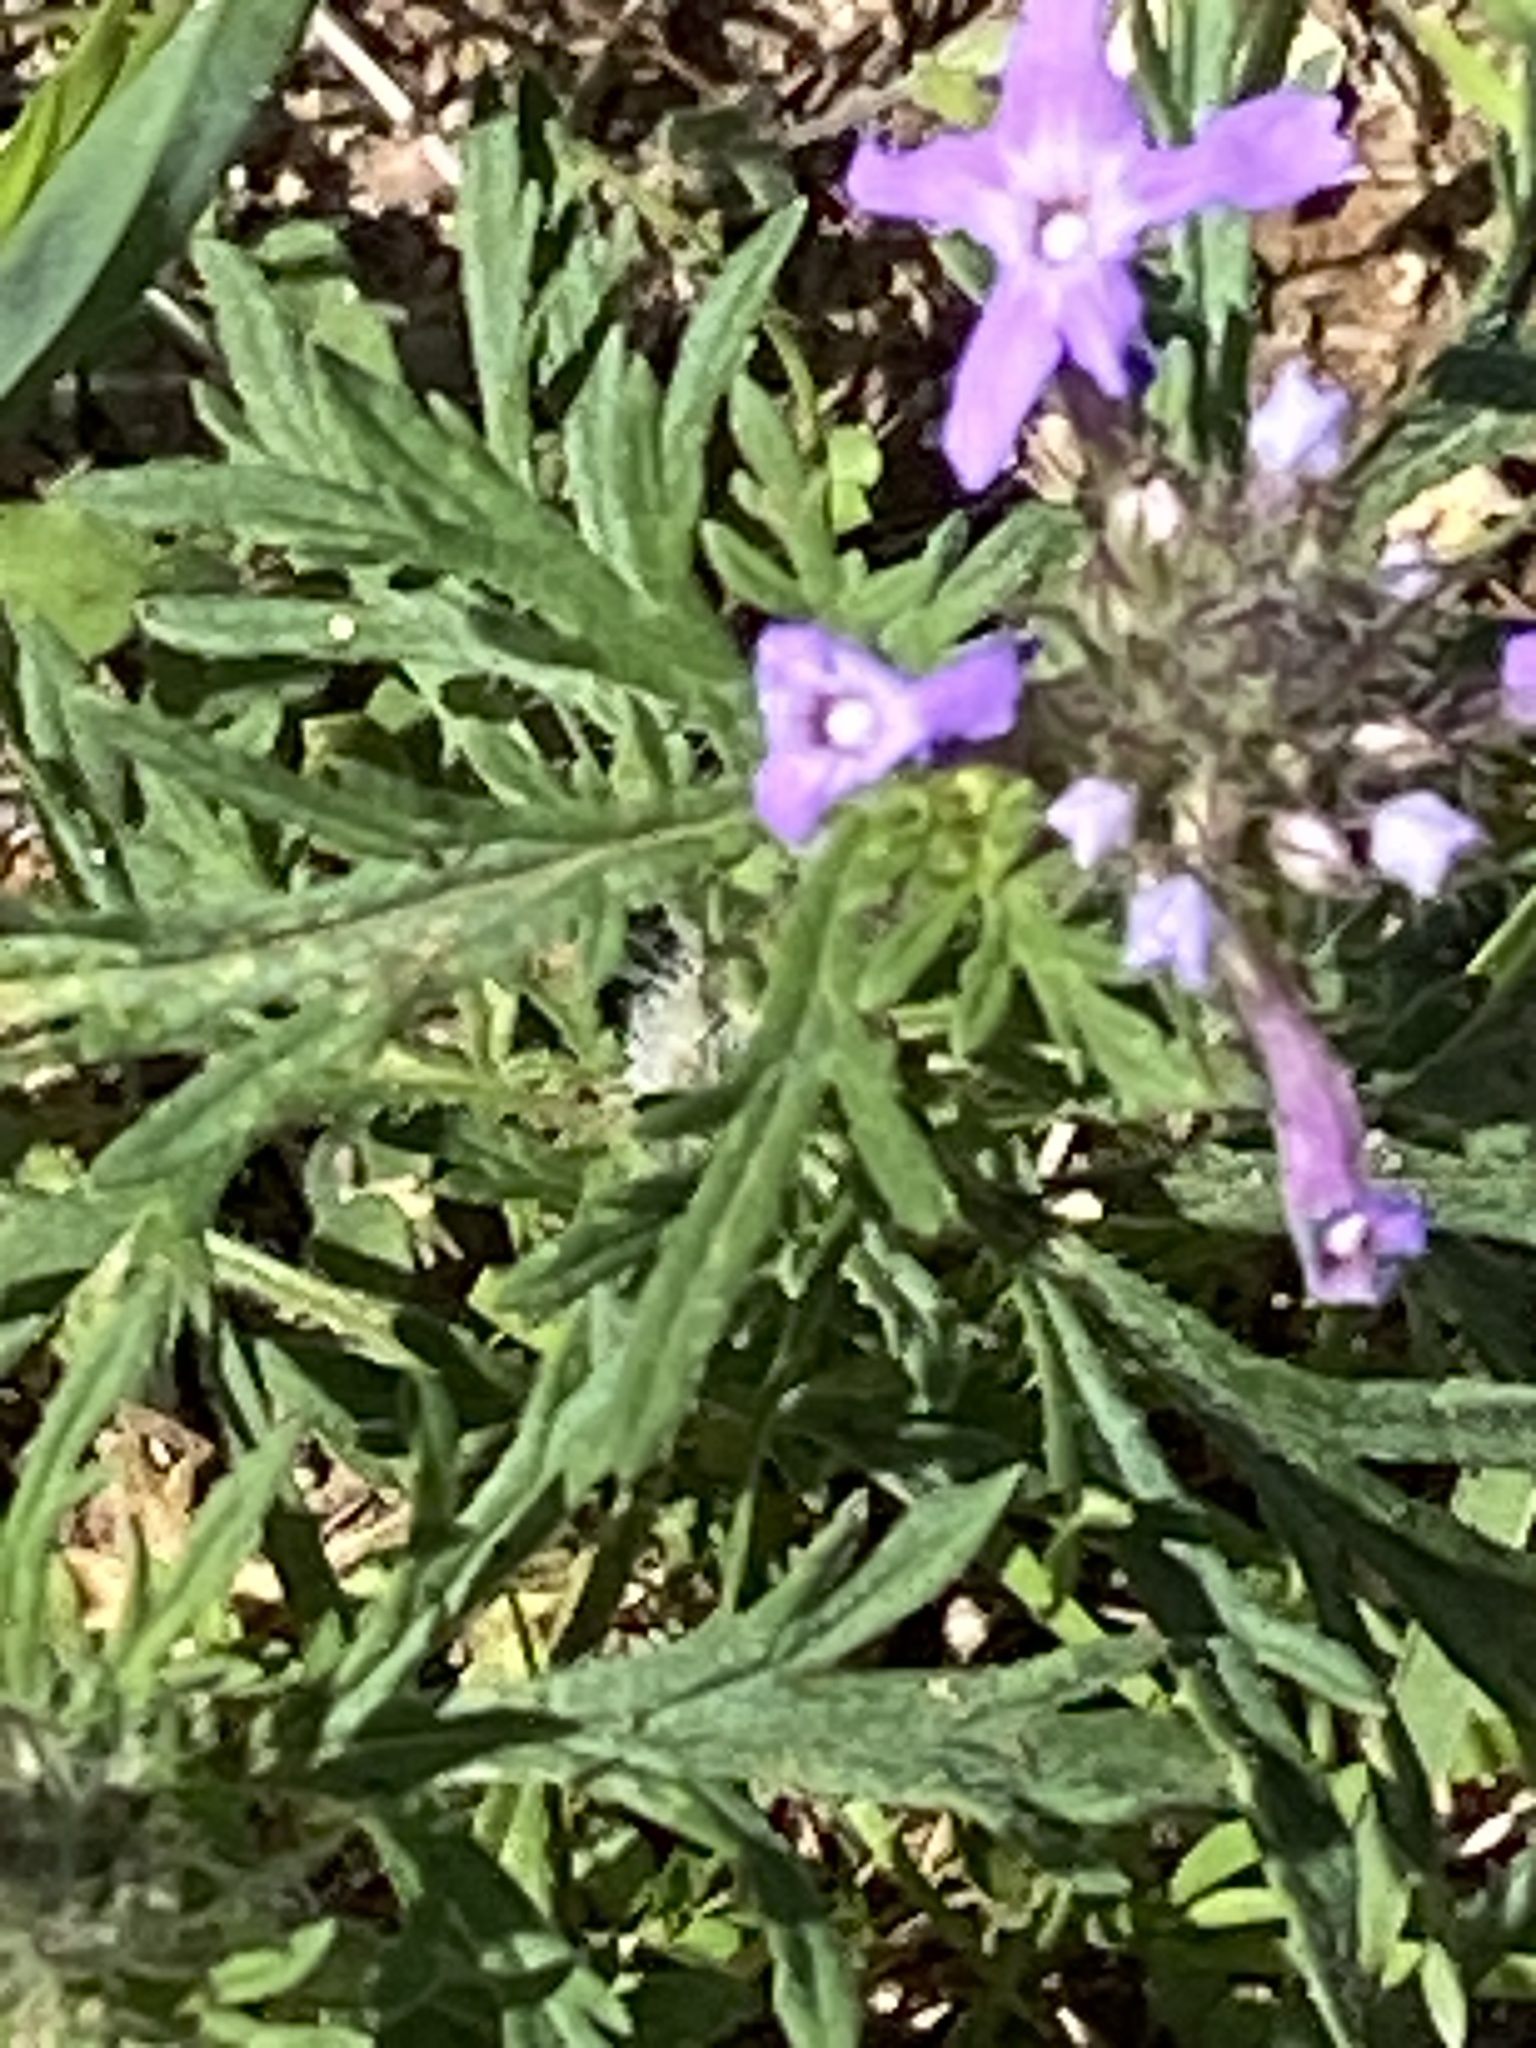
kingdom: Plantae
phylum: Tracheophyta
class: Magnoliopsida
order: Lamiales
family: Verbenaceae
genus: Verbena
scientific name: Verbena bipinnatifida
